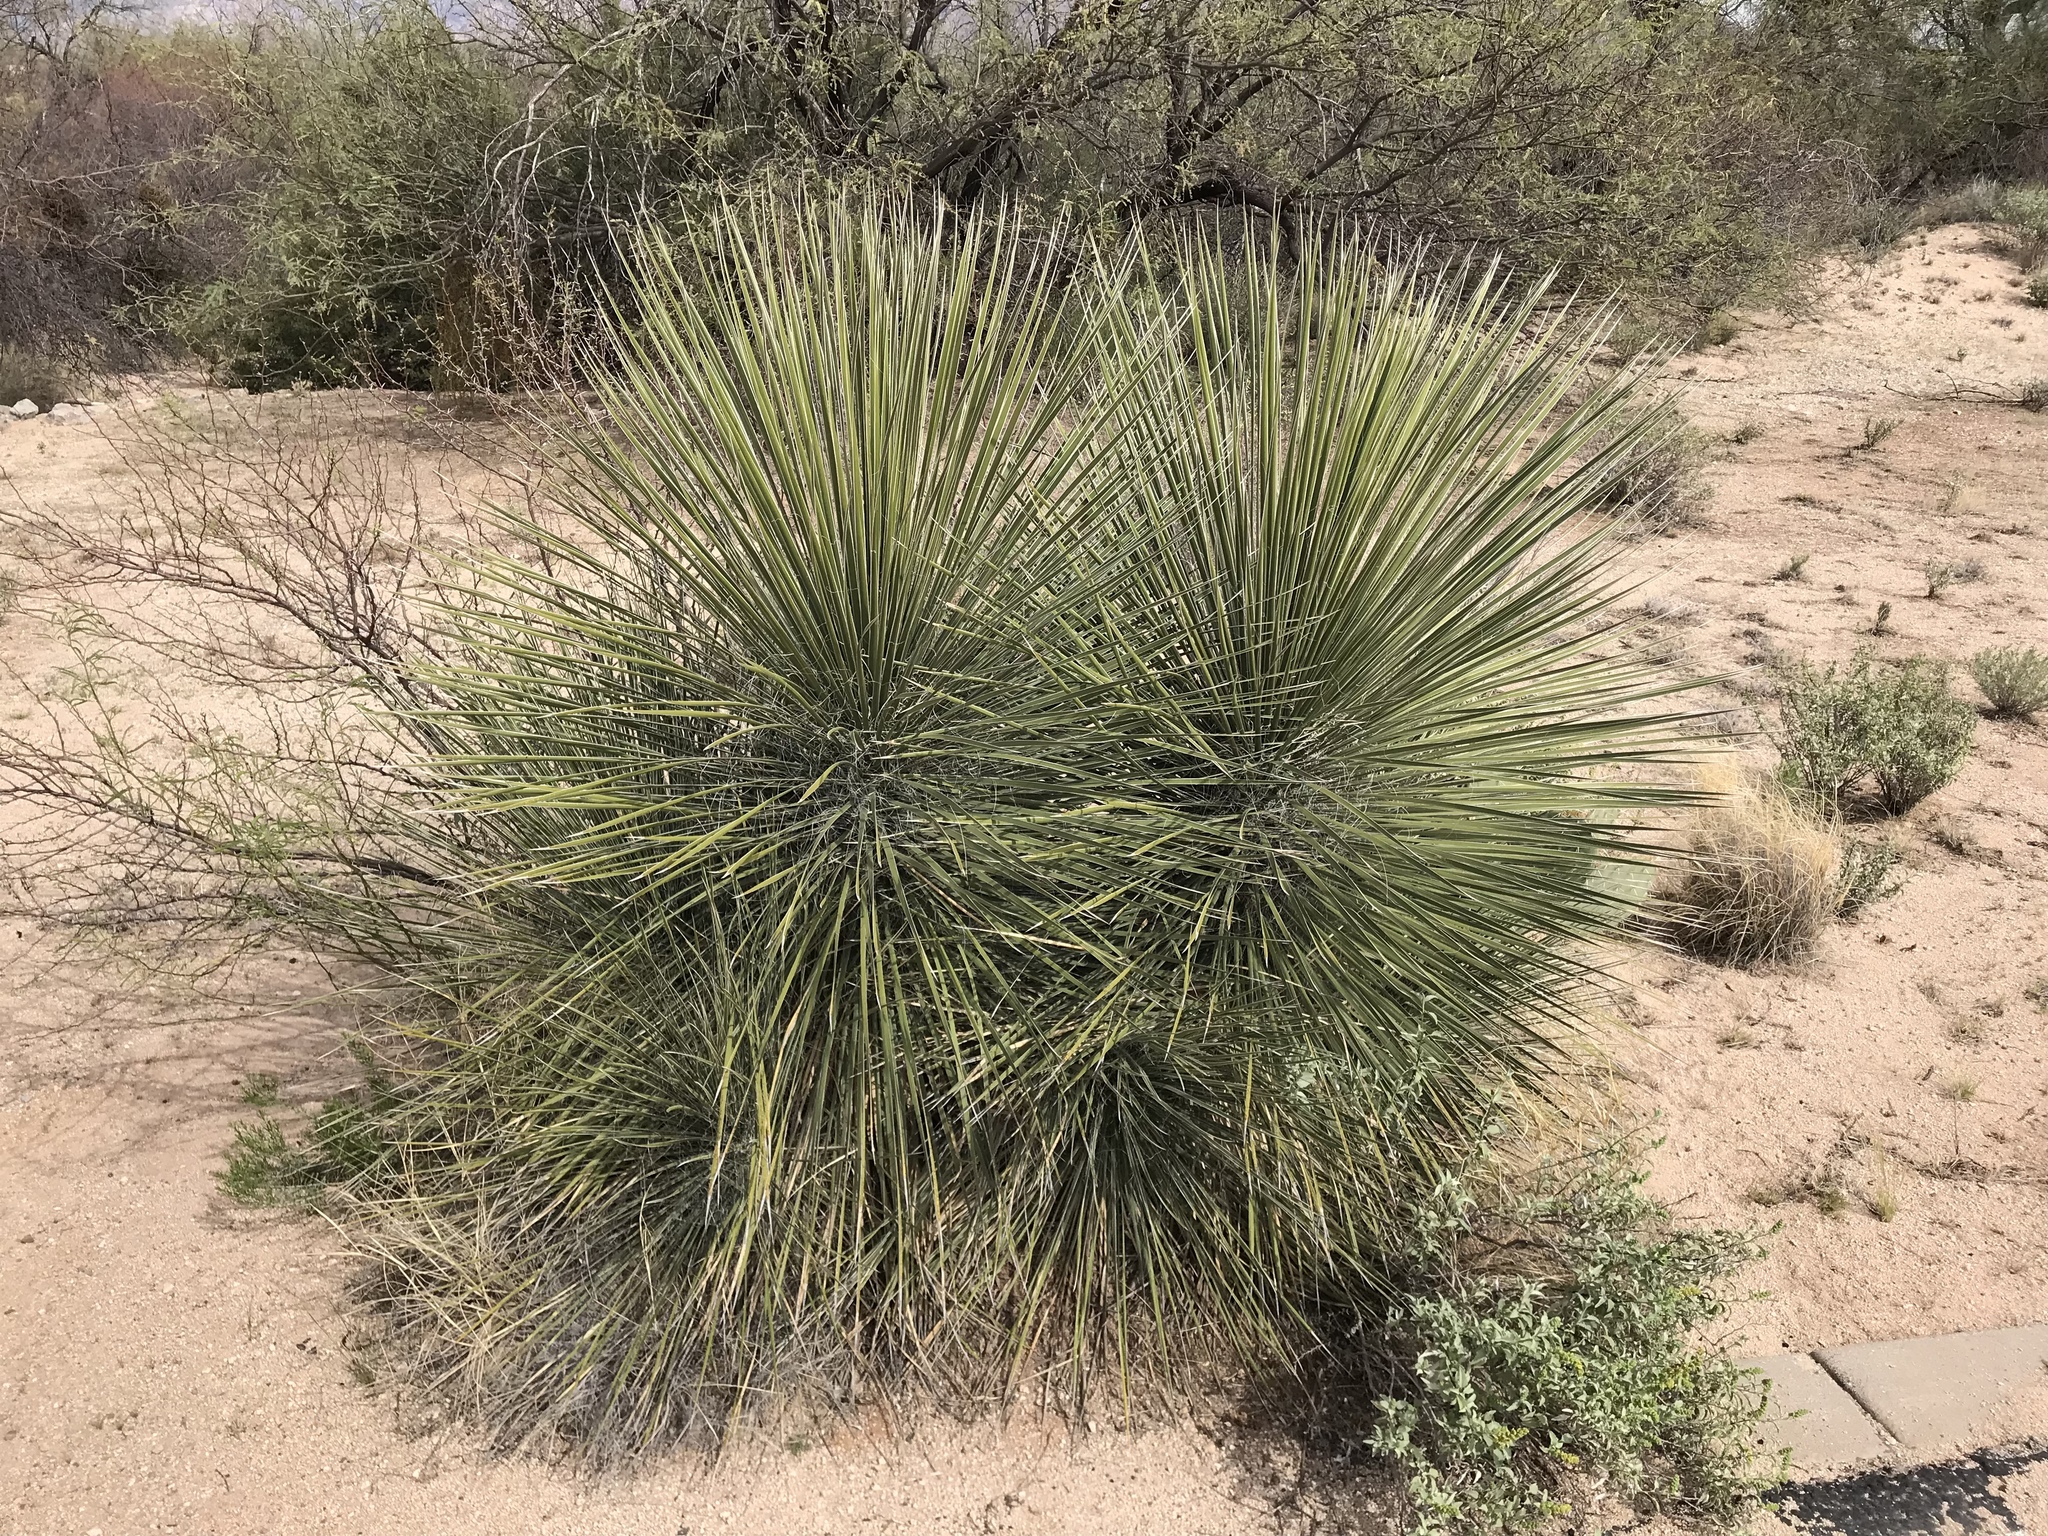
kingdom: Plantae
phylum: Tracheophyta
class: Liliopsida
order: Asparagales
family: Asparagaceae
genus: Yucca
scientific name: Yucca elata
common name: Palmella
